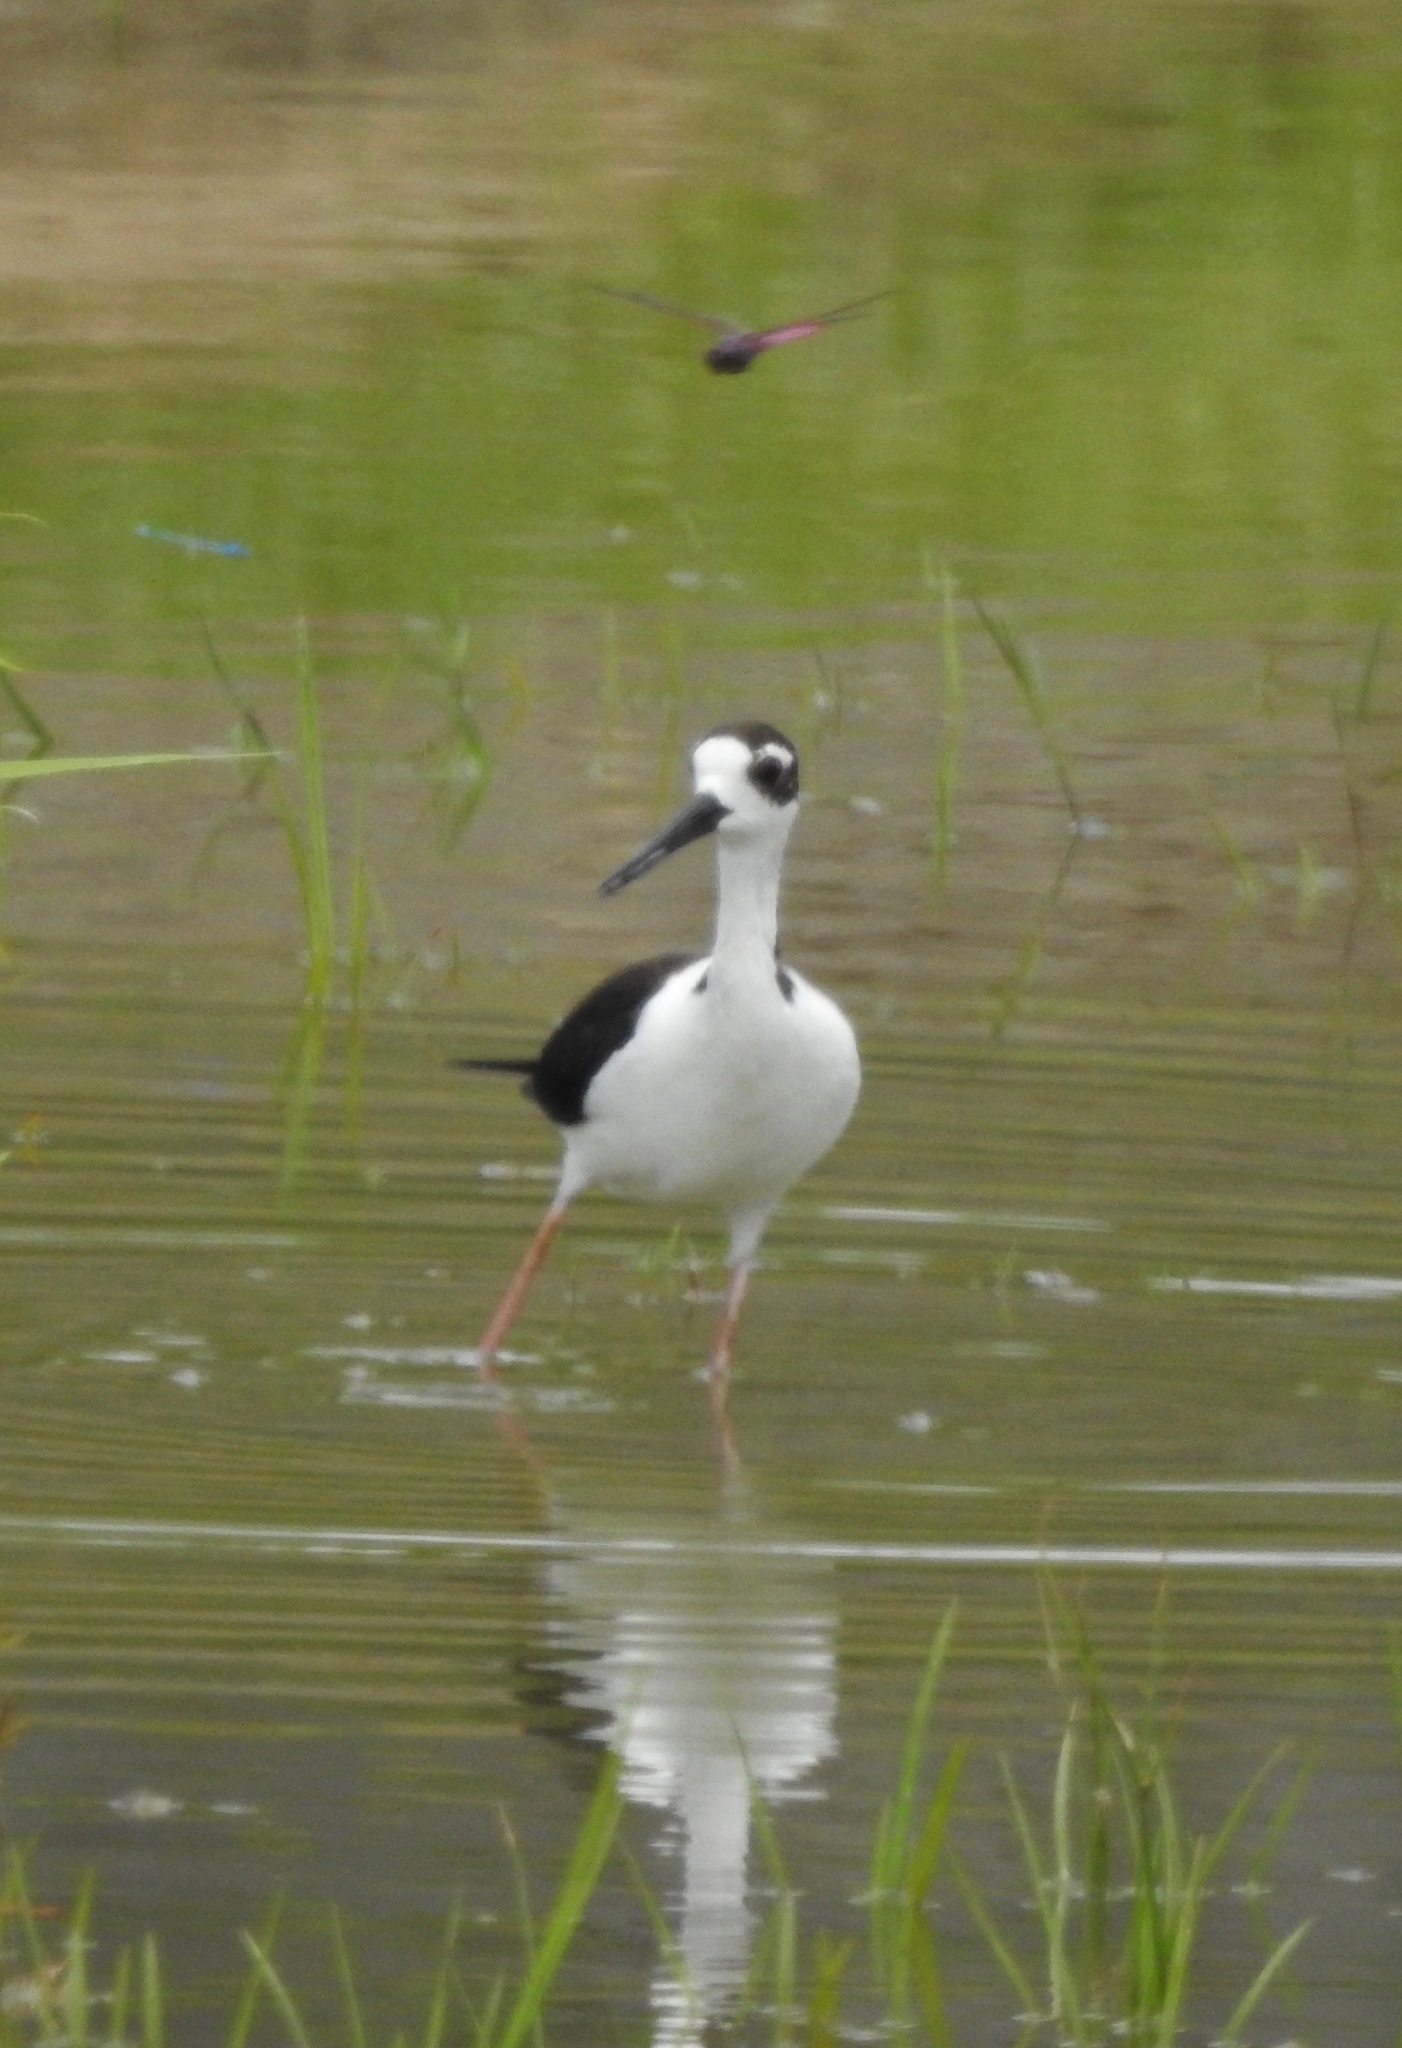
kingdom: Animalia
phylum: Chordata
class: Aves
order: Charadriiformes
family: Recurvirostridae
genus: Himantopus
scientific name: Himantopus mexicanus
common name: Black-necked stilt
